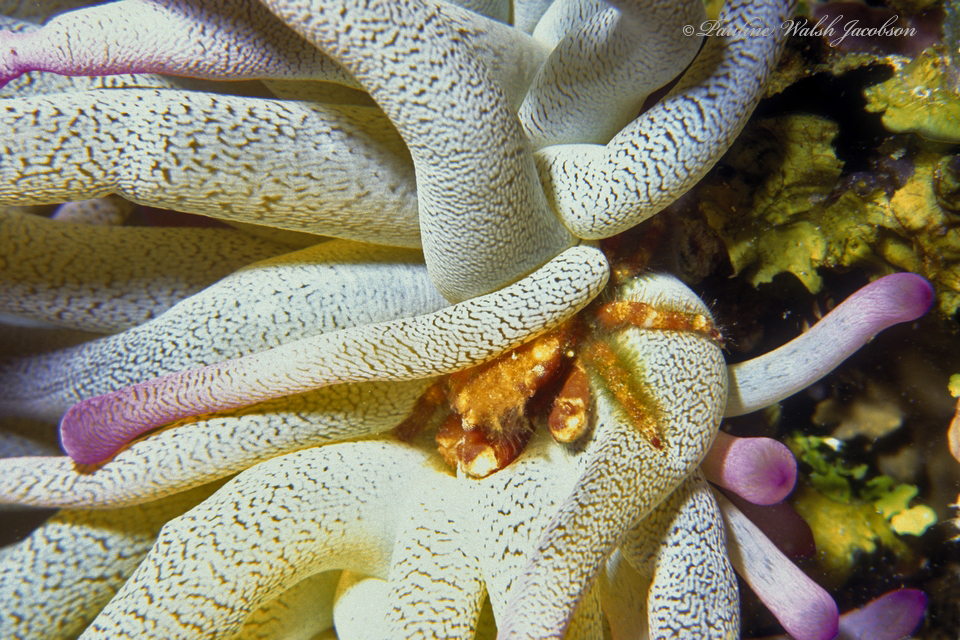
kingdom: Animalia
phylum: Arthropoda
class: Malacostraca
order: Decapoda
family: Mithracidae
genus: Mithraculus
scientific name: Mithraculus cinctimanus
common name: Banded clinging crab
